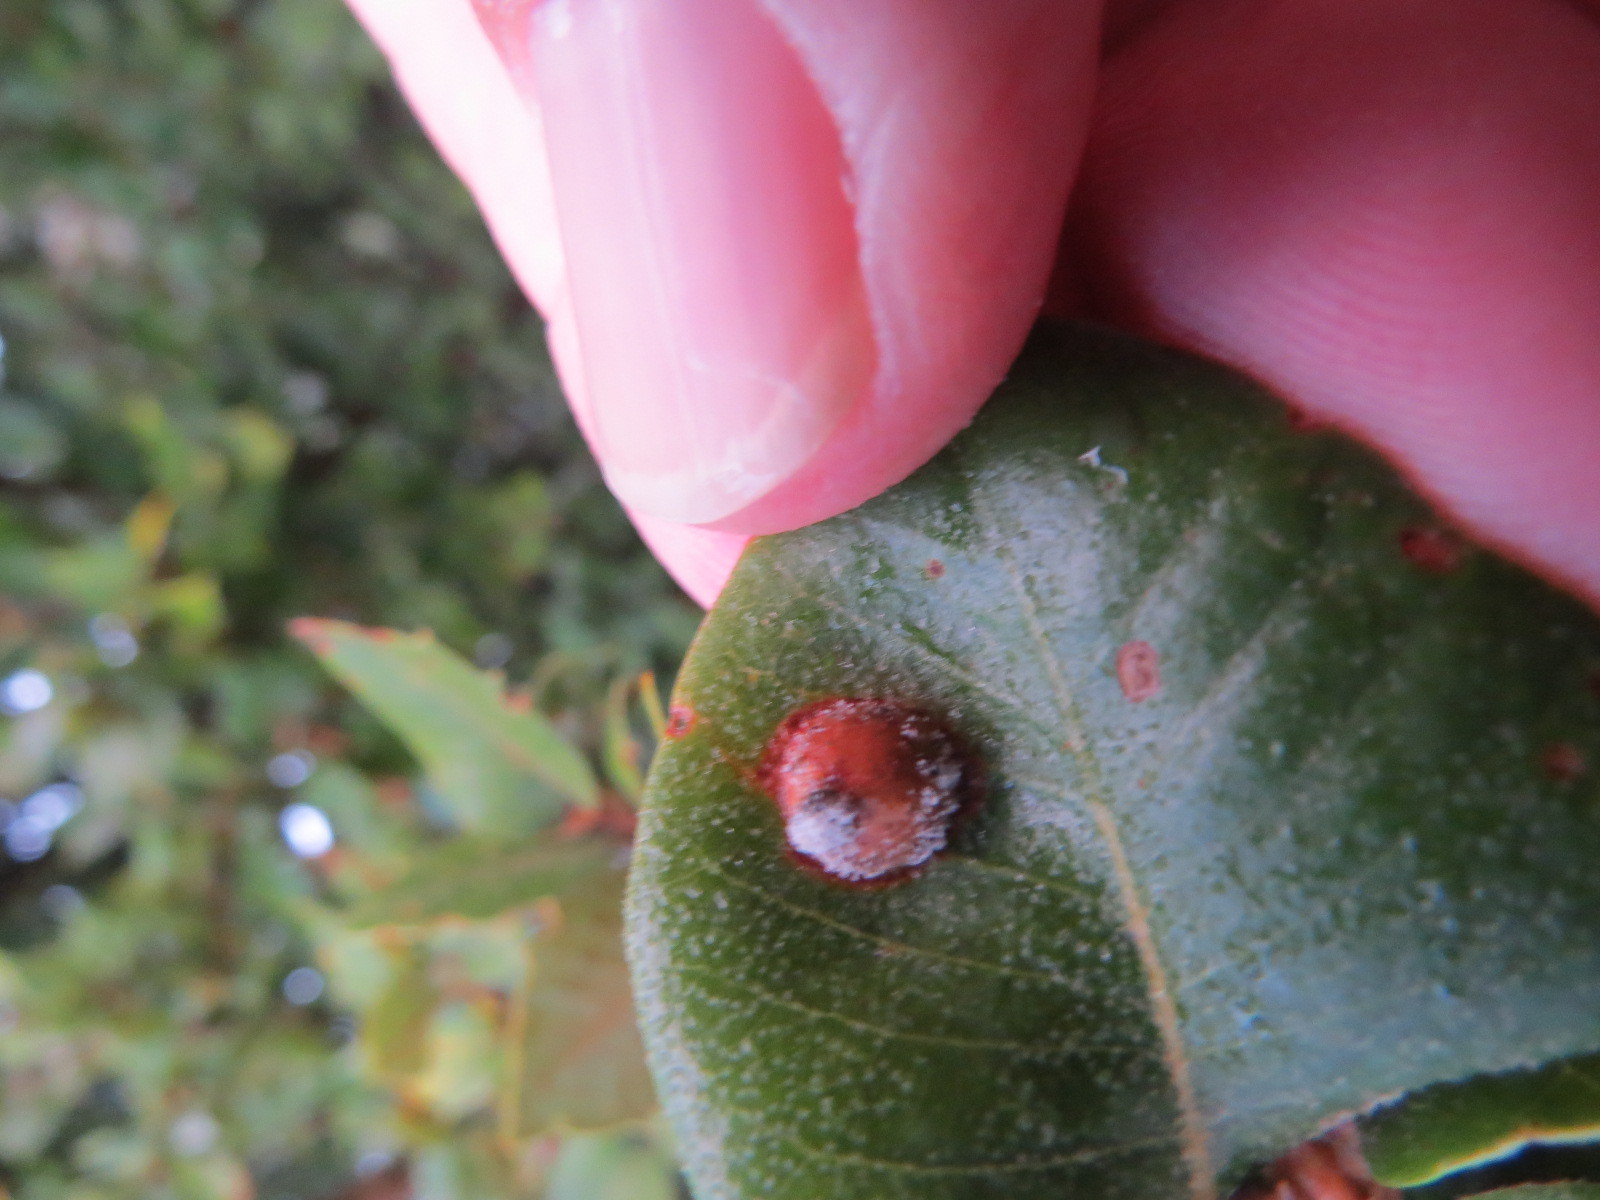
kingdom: Animalia
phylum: Arthropoda
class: Insecta
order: Hymenoptera
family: Cynipidae
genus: Heteroecus
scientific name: Heteroecus
